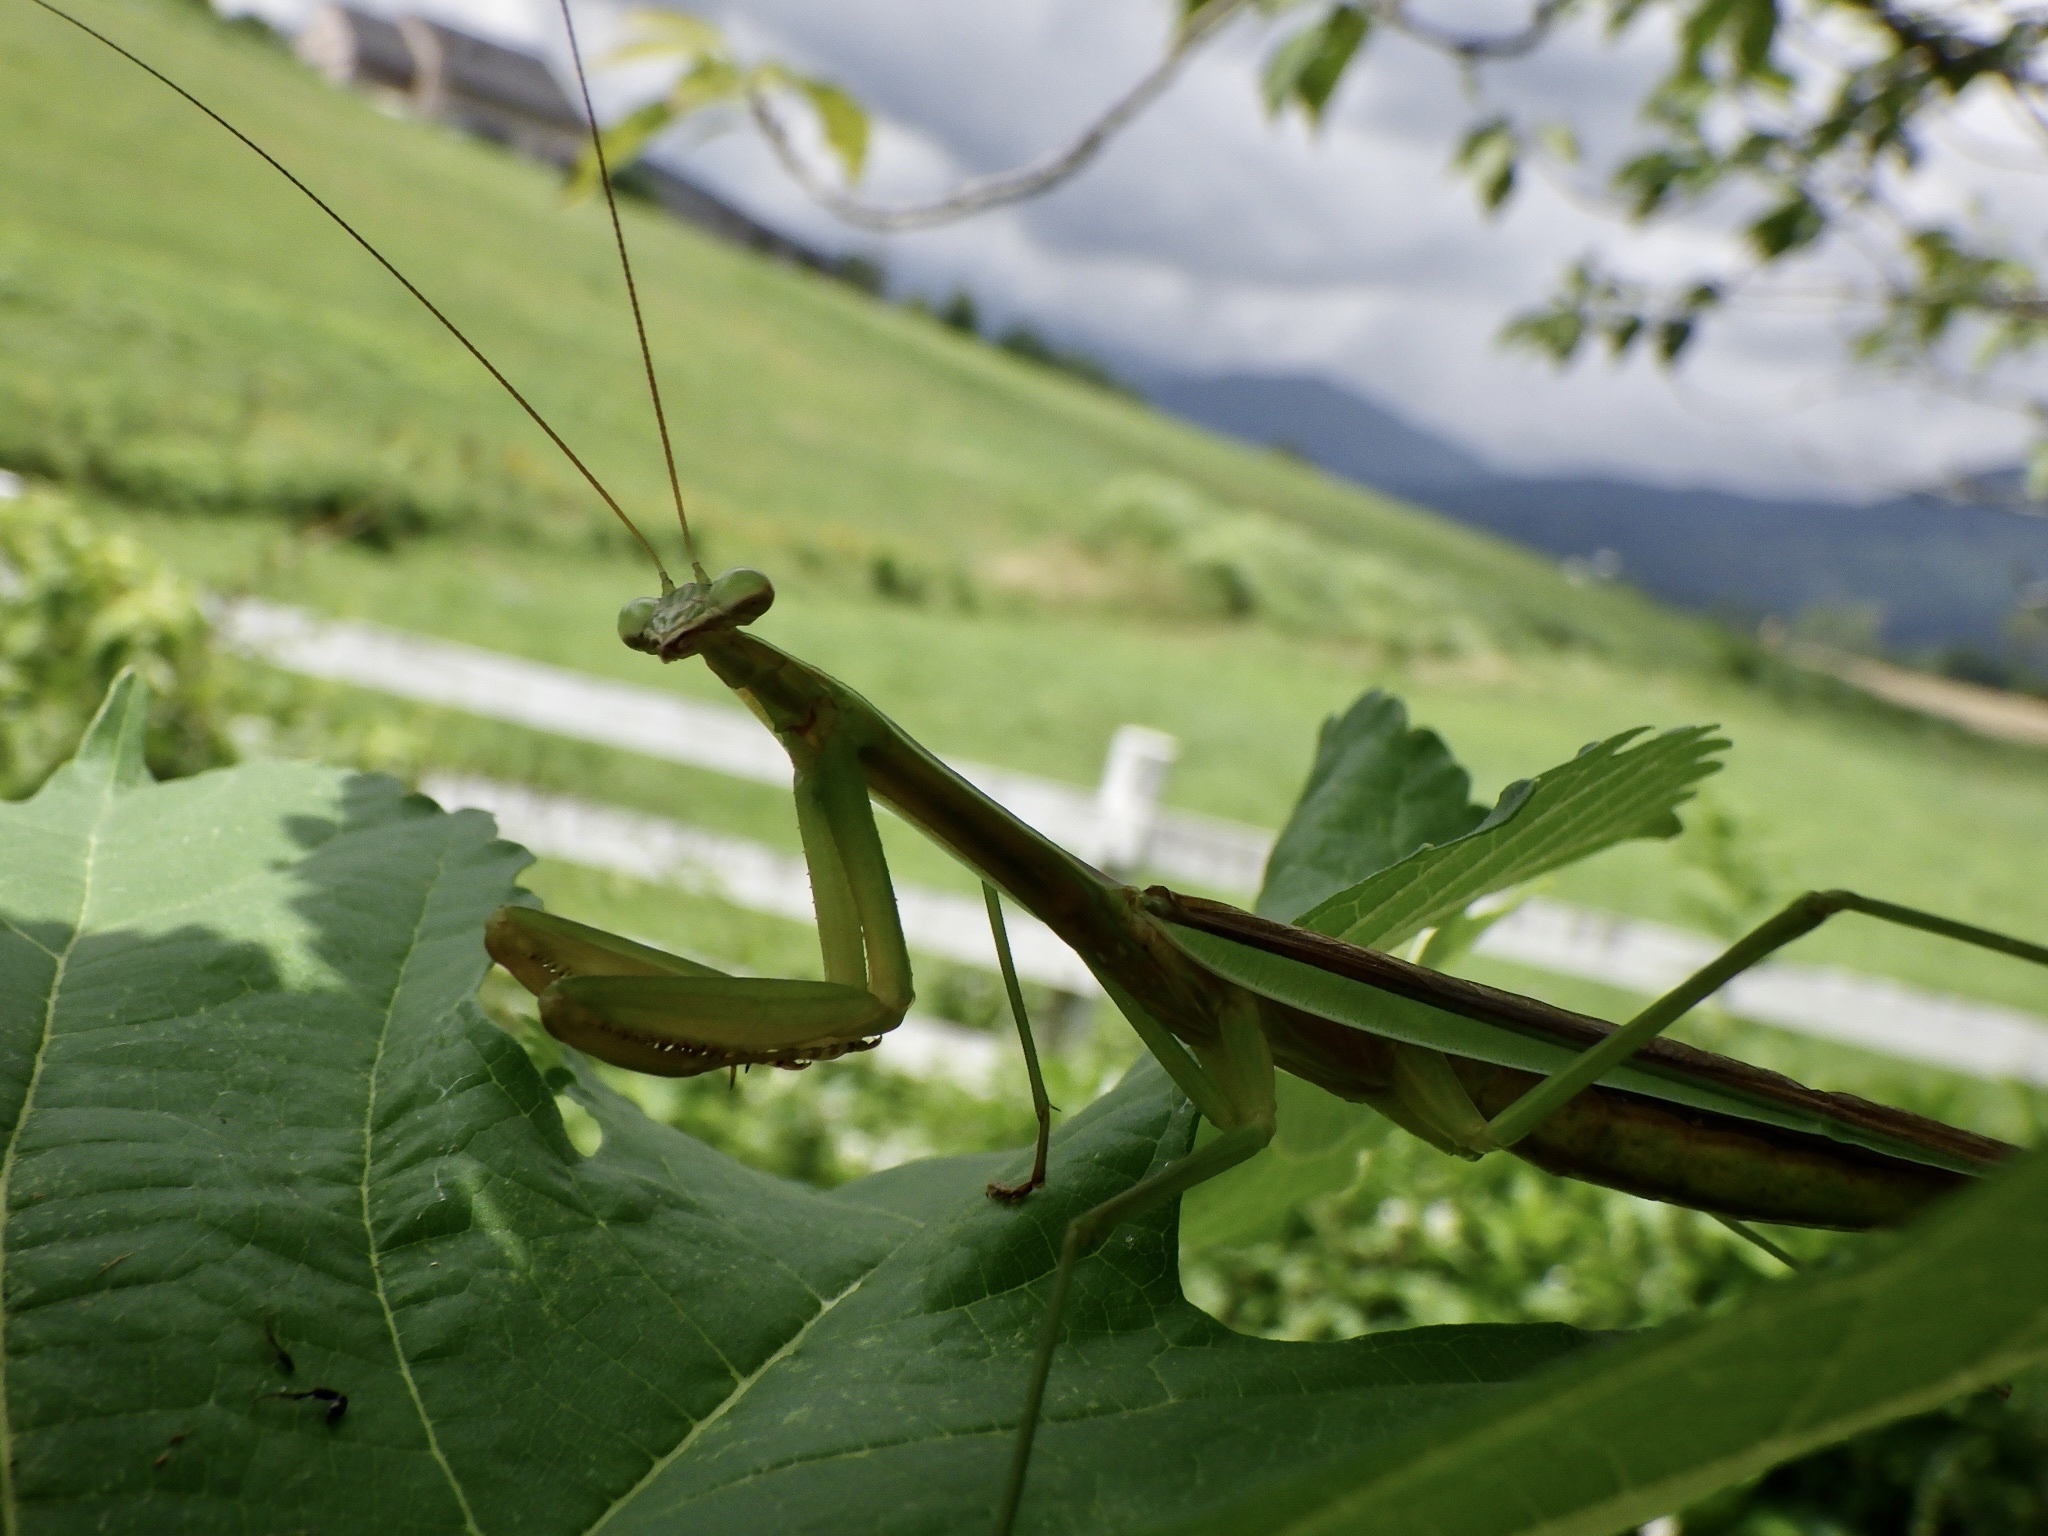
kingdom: Animalia
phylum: Arthropoda
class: Insecta
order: Mantodea
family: Mantidae
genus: Tenodera
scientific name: Tenodera angustipennis
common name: Asian mantis
